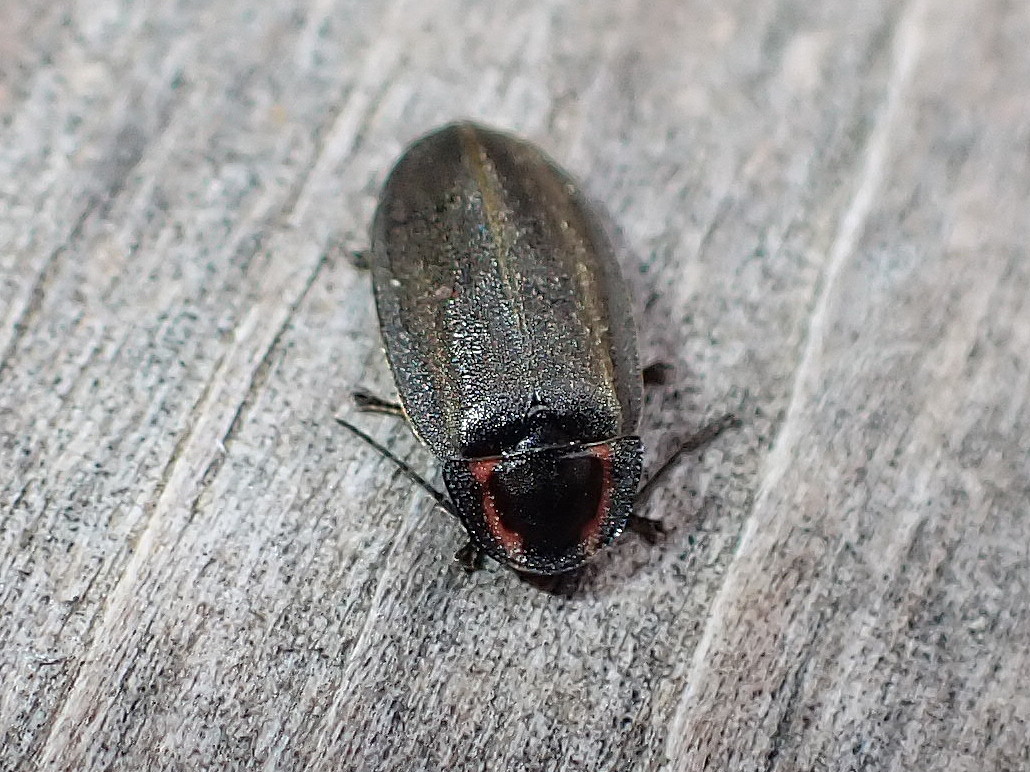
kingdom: Animalia
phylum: Arthropoda
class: Insecta
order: Coleoptera
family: Lampyridae
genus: Photinus
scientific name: Photinus corrusca
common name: Winter firefly
